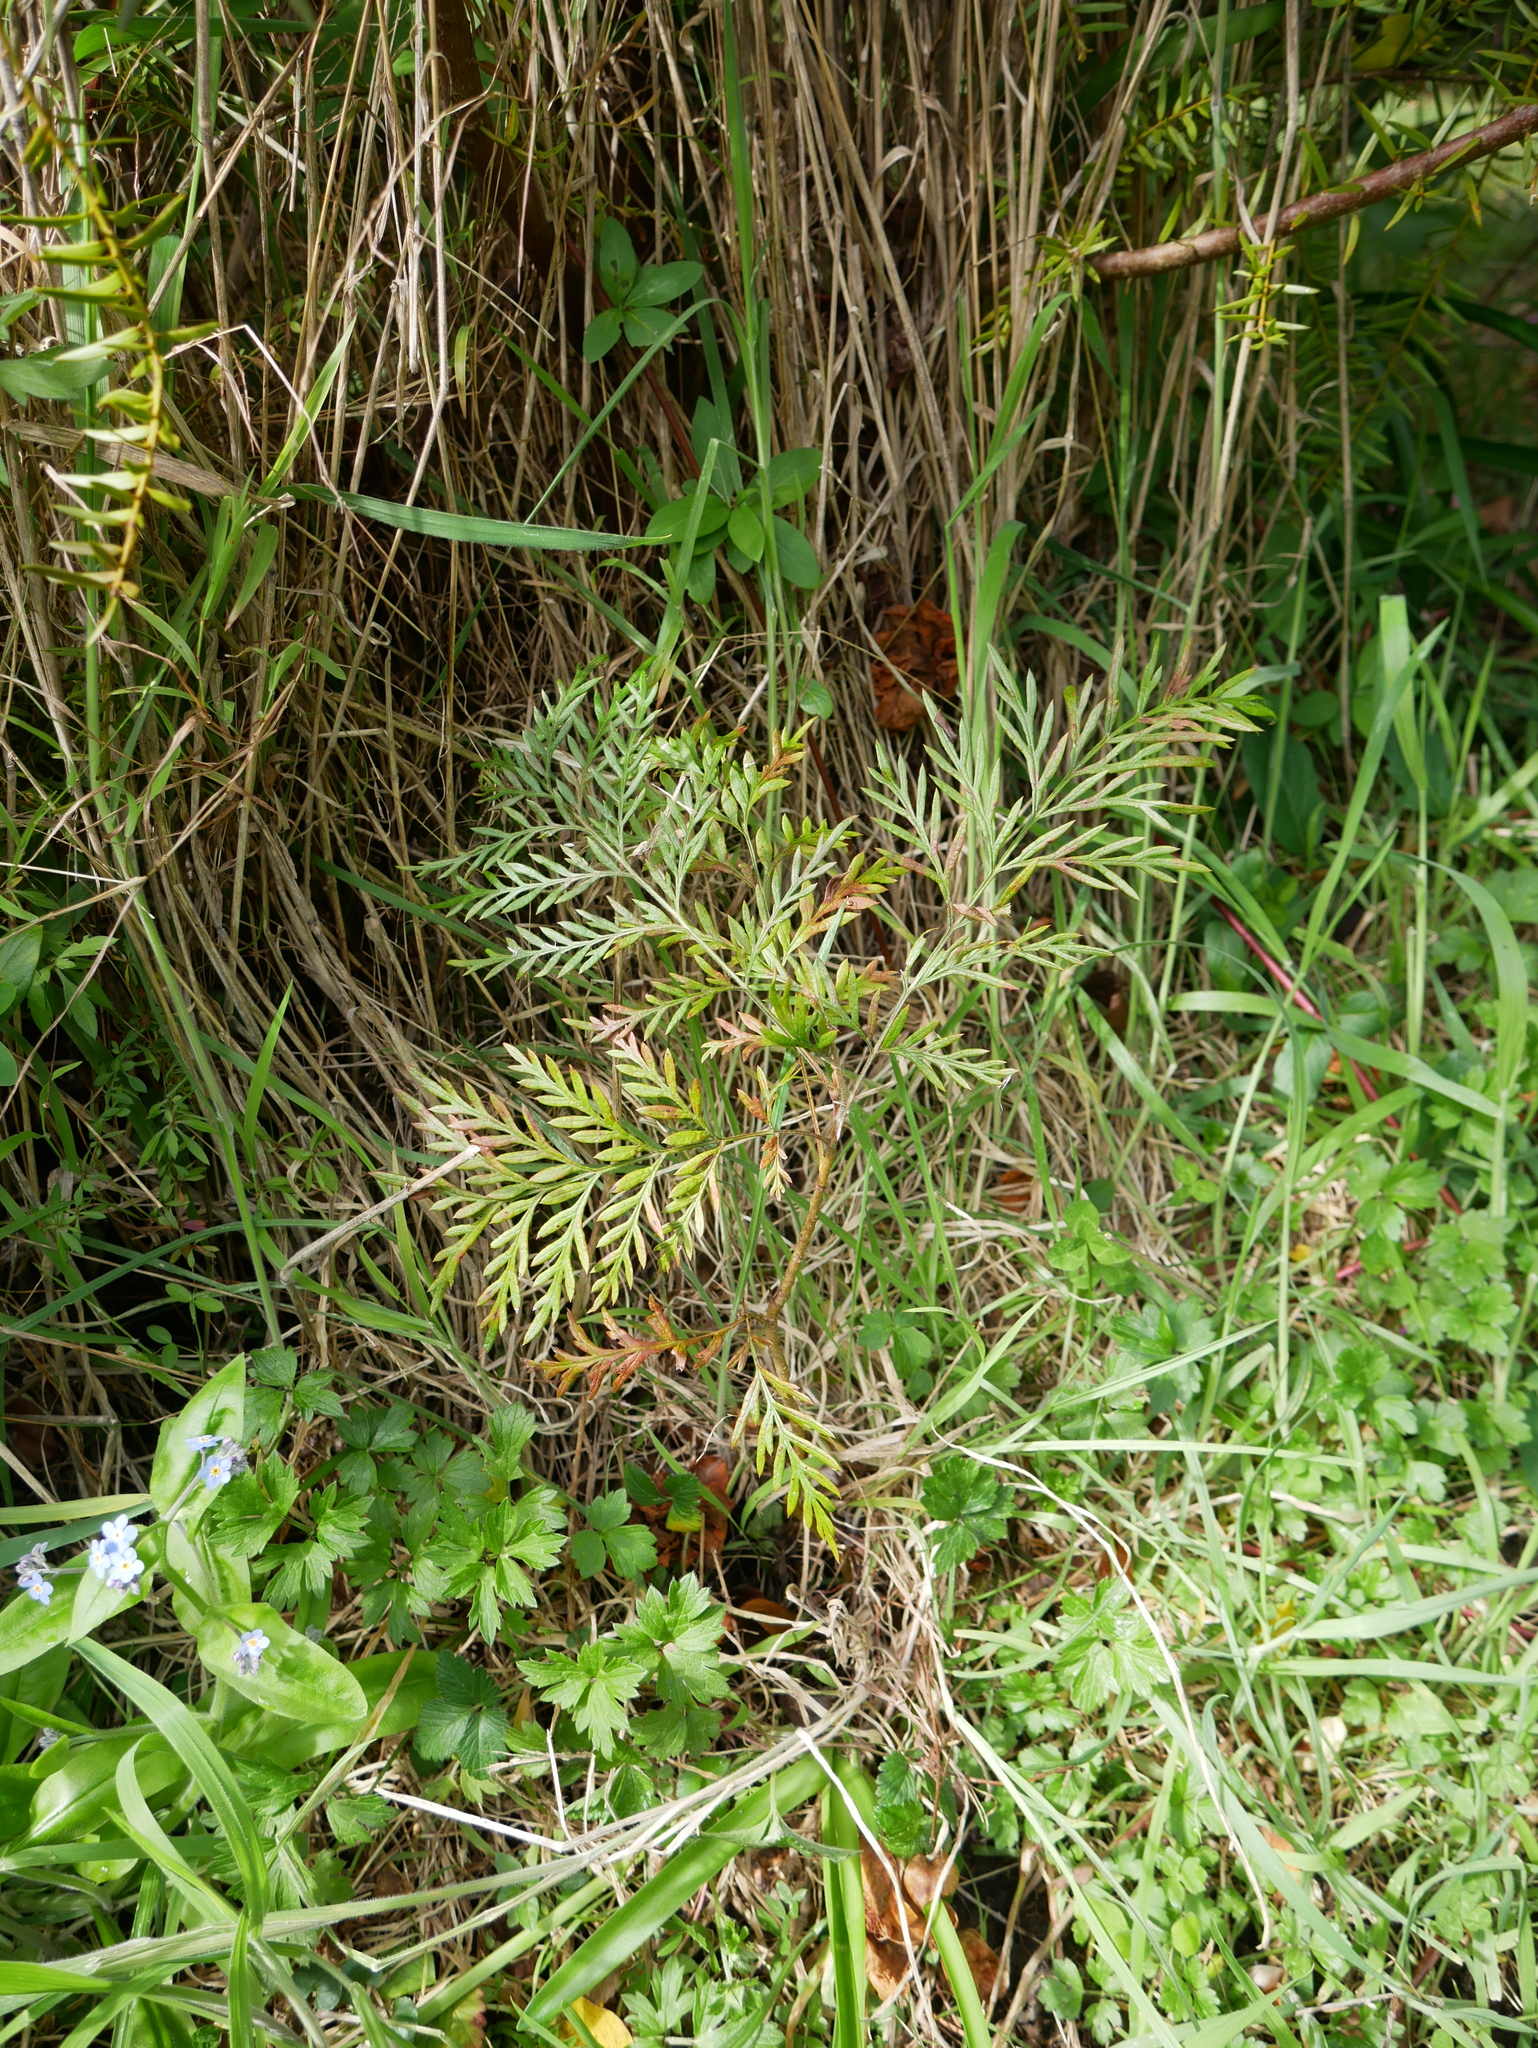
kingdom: Plantae
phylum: Tracheophyta
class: Magnoliopsida
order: Proteales
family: Proteaceae
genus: Grevillea
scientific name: Grevillea robusta
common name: Silkoak
